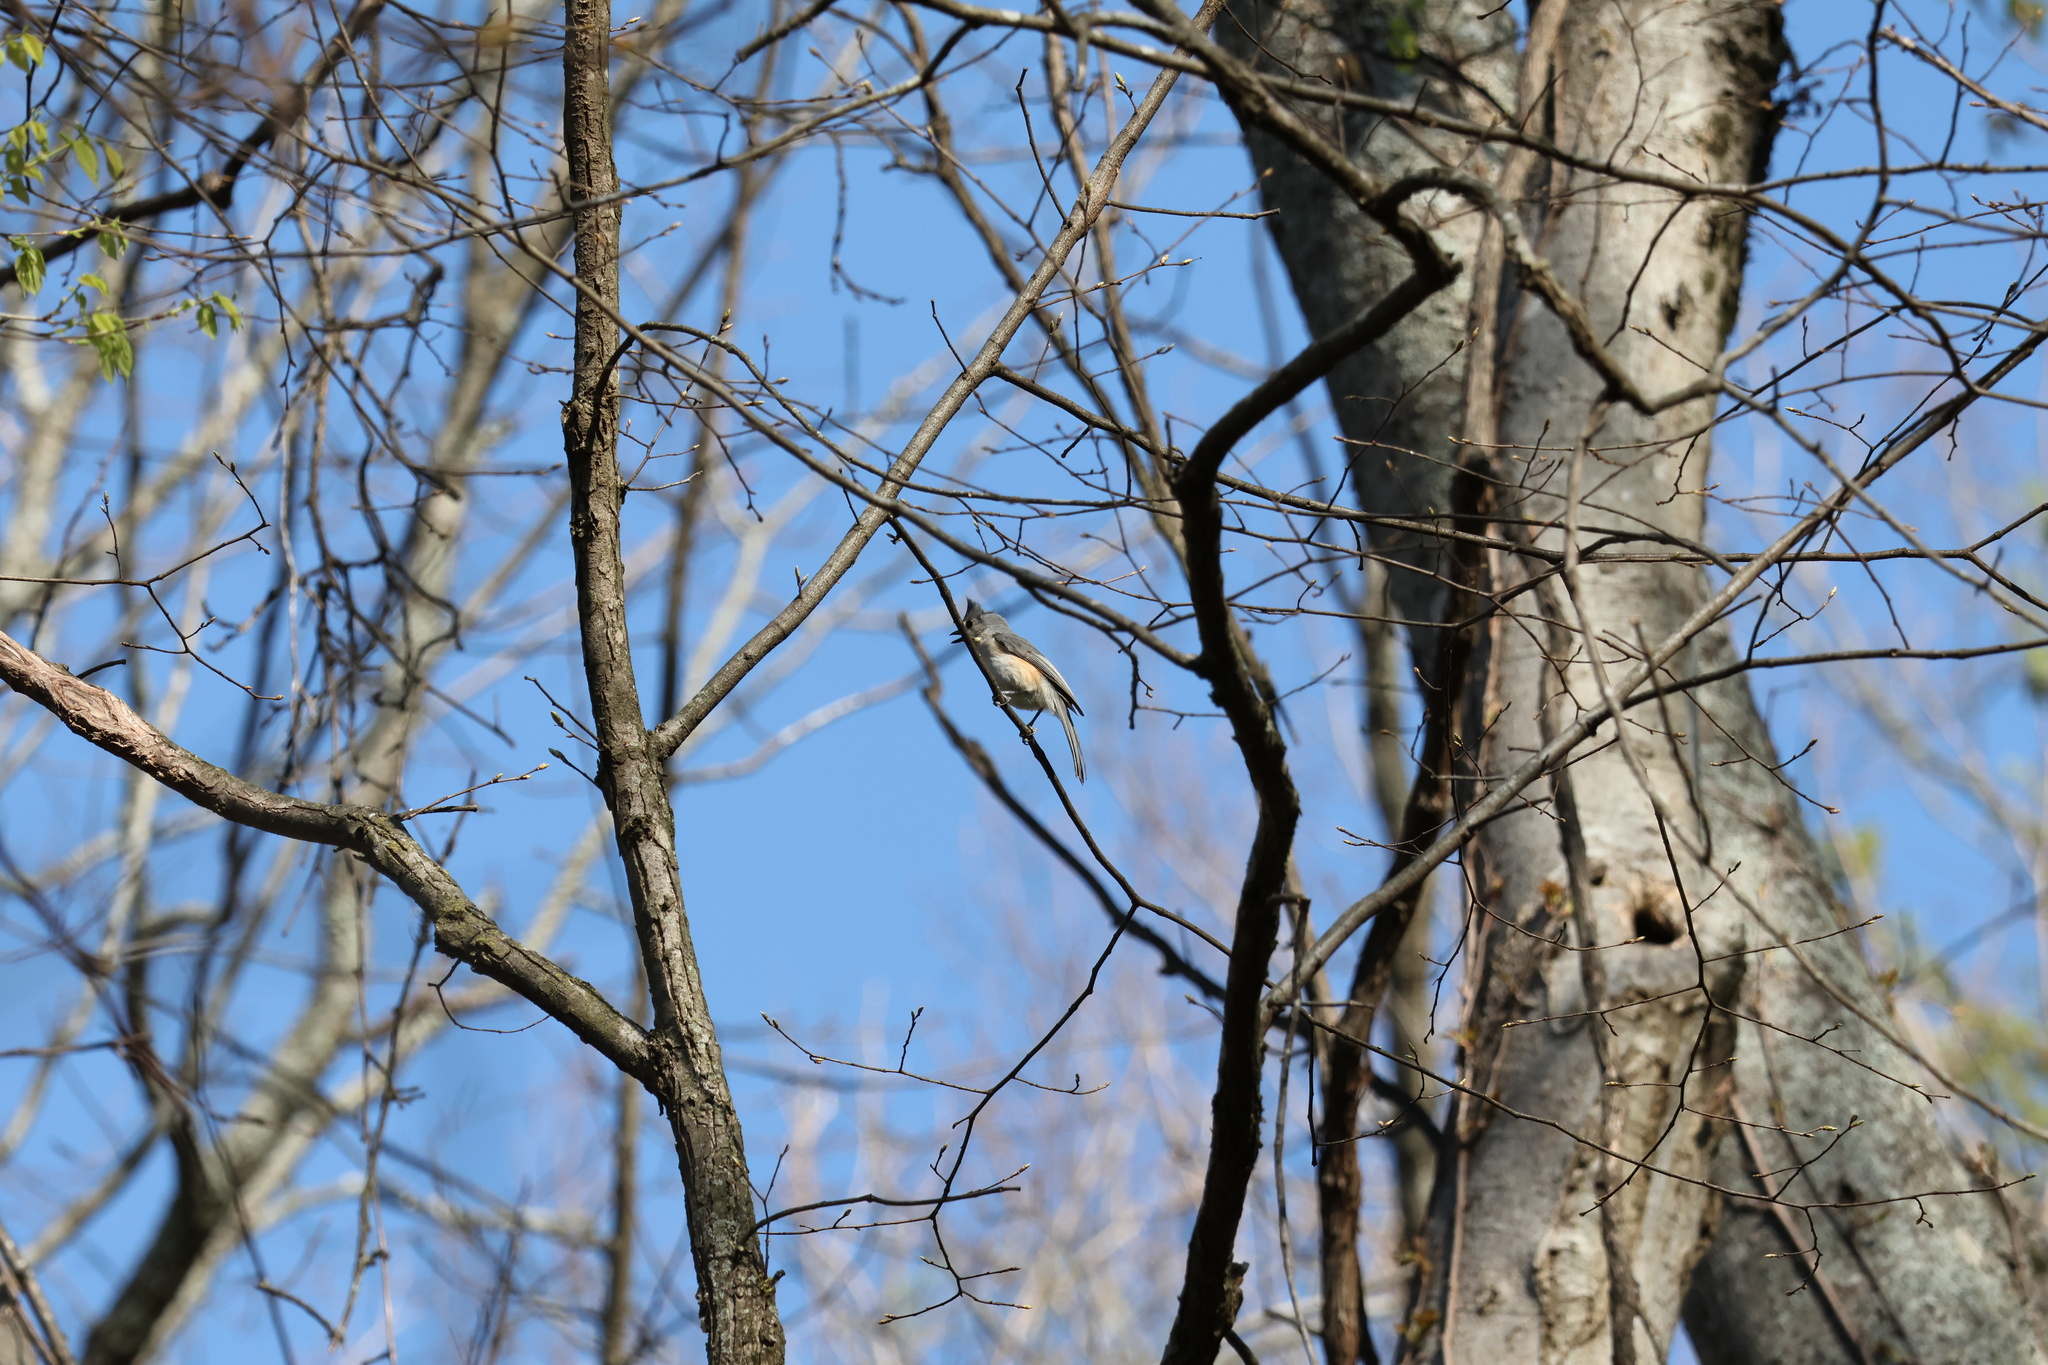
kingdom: Animalia
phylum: Chordata
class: Aves
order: Passeriformes
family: Paridae
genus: Baeolophus
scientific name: Baeolophus bicolor
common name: Tufted titmouse
